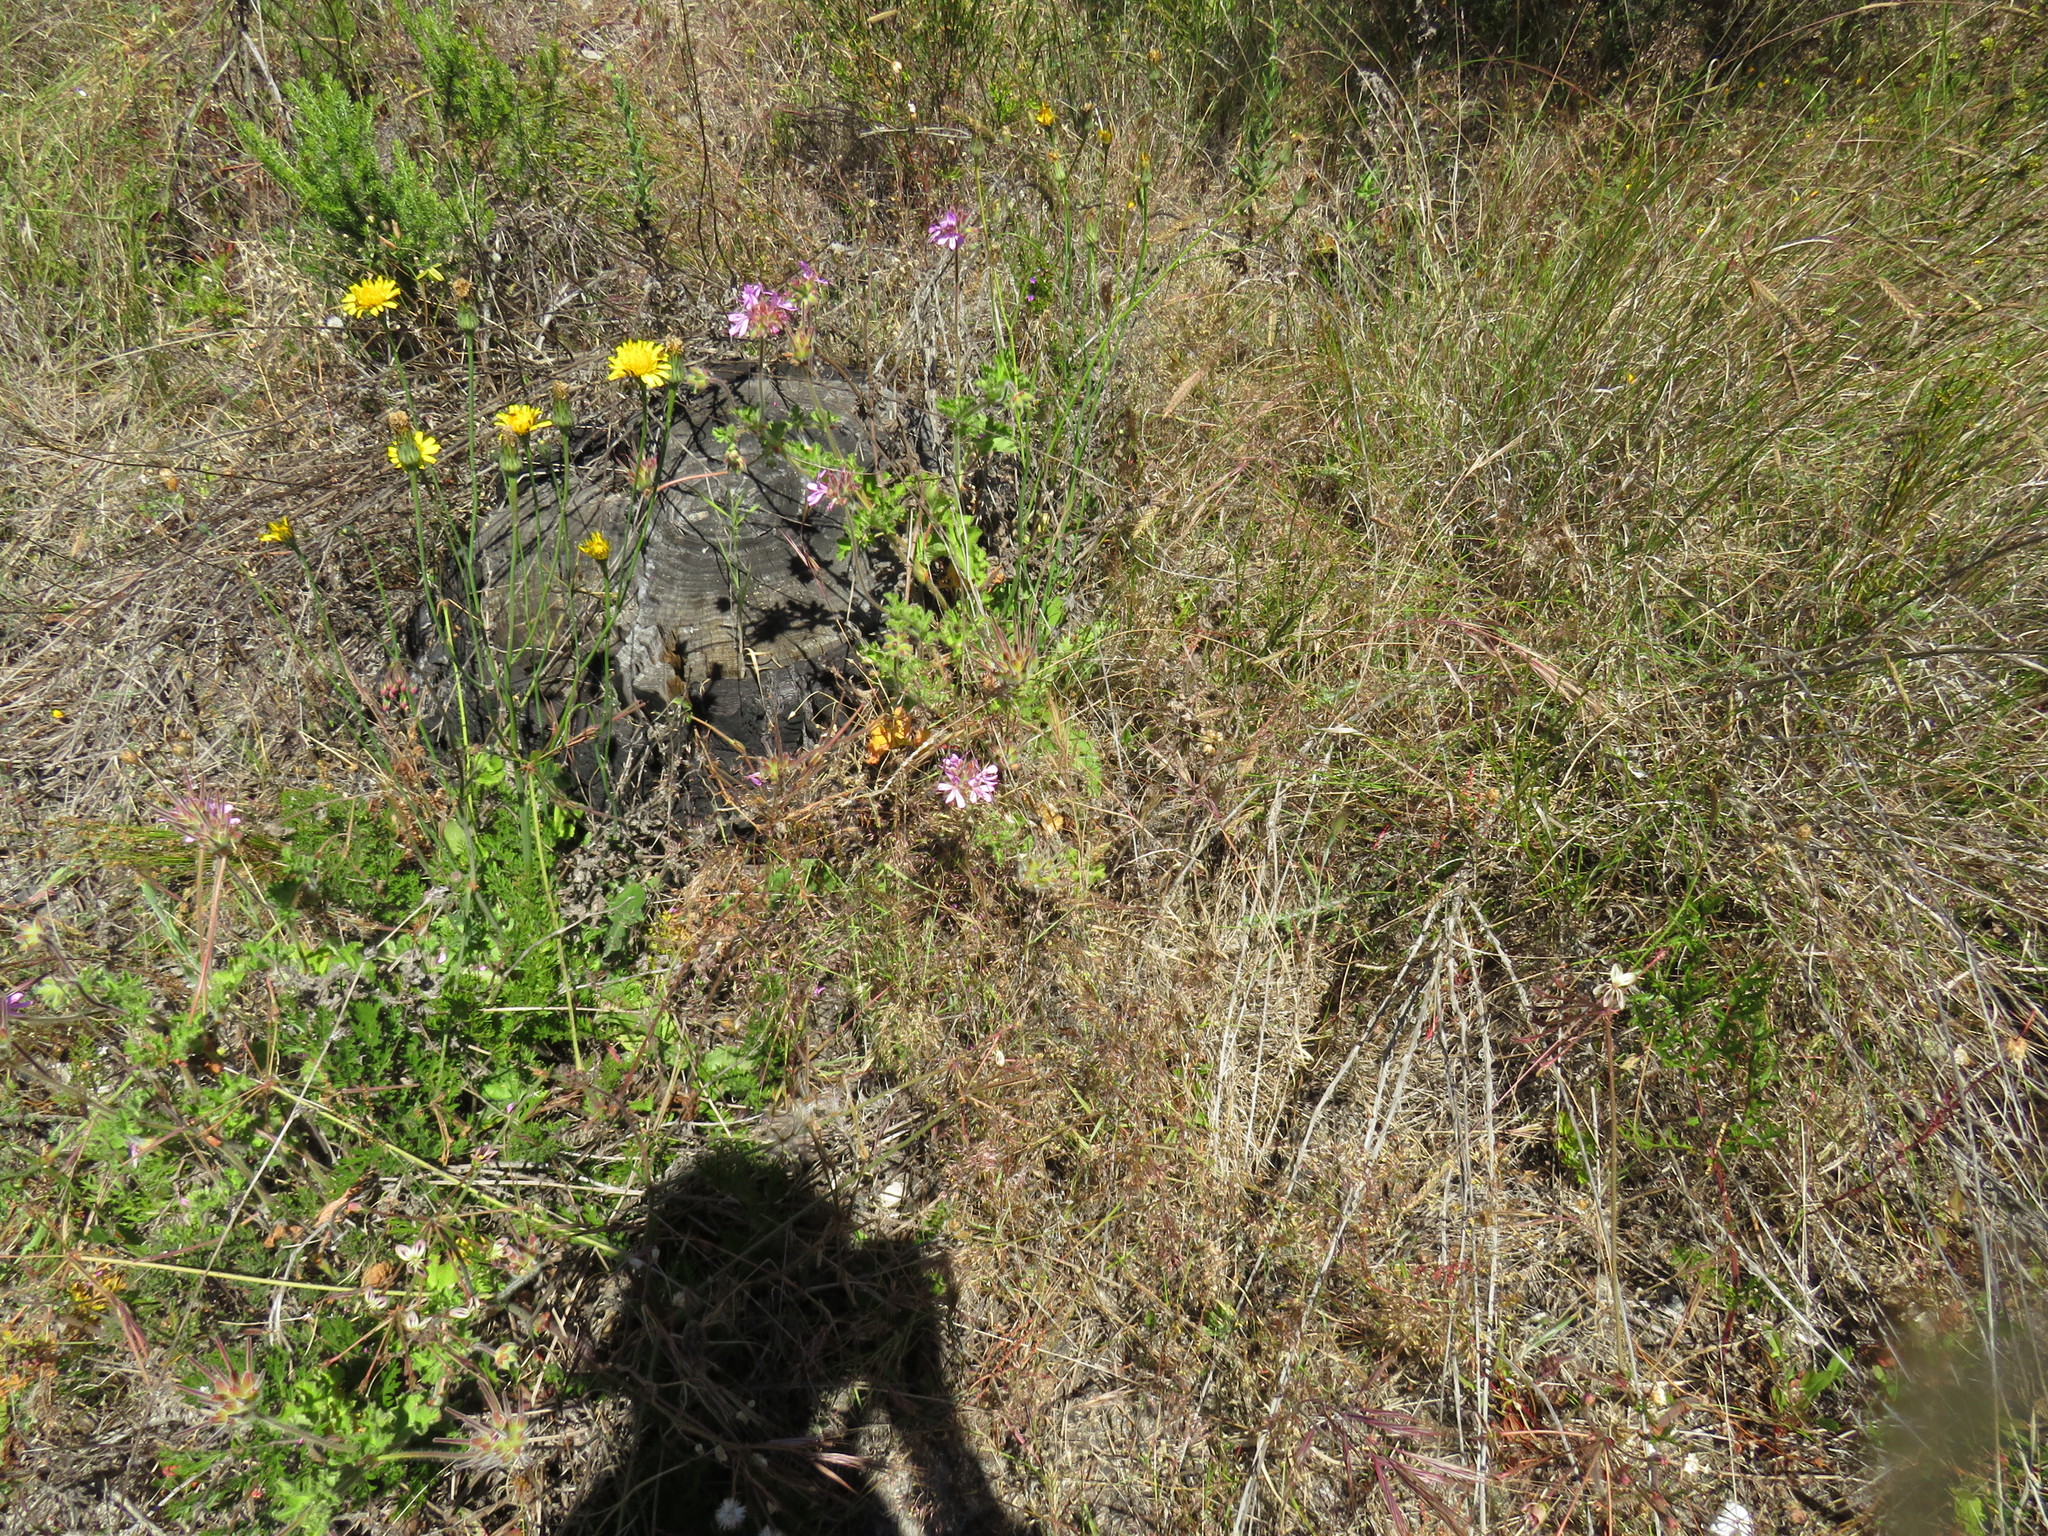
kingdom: Plantae
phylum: Tracheophyta
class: Magnoliopsida
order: Geraniales
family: Geraniaceae
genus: Pelargonium
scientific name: Pelargonium capitatum
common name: Rose scented geranium
